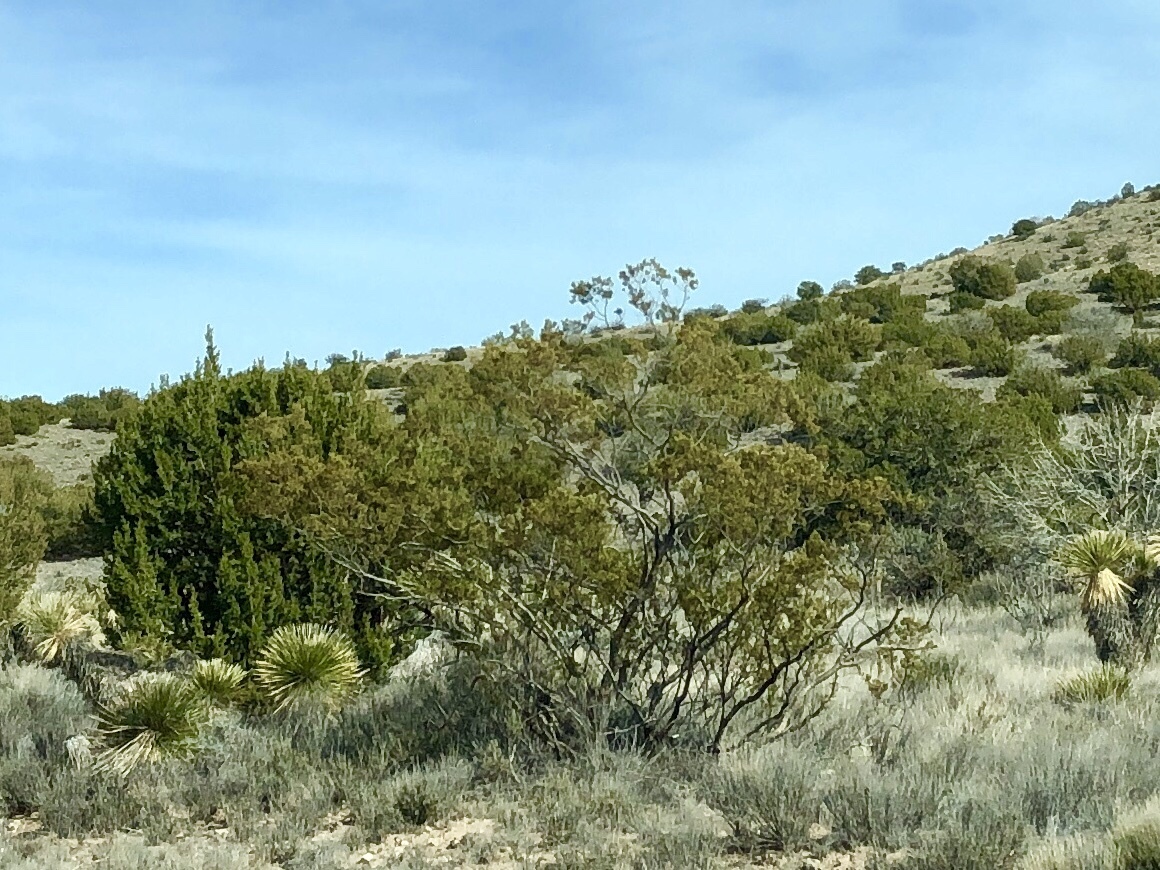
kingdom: Plantae
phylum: Tracheophyta
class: Magnoliopsida
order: Zygophyllales
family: Zygophyllaceae
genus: Larrea
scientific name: Larrea tridentata
